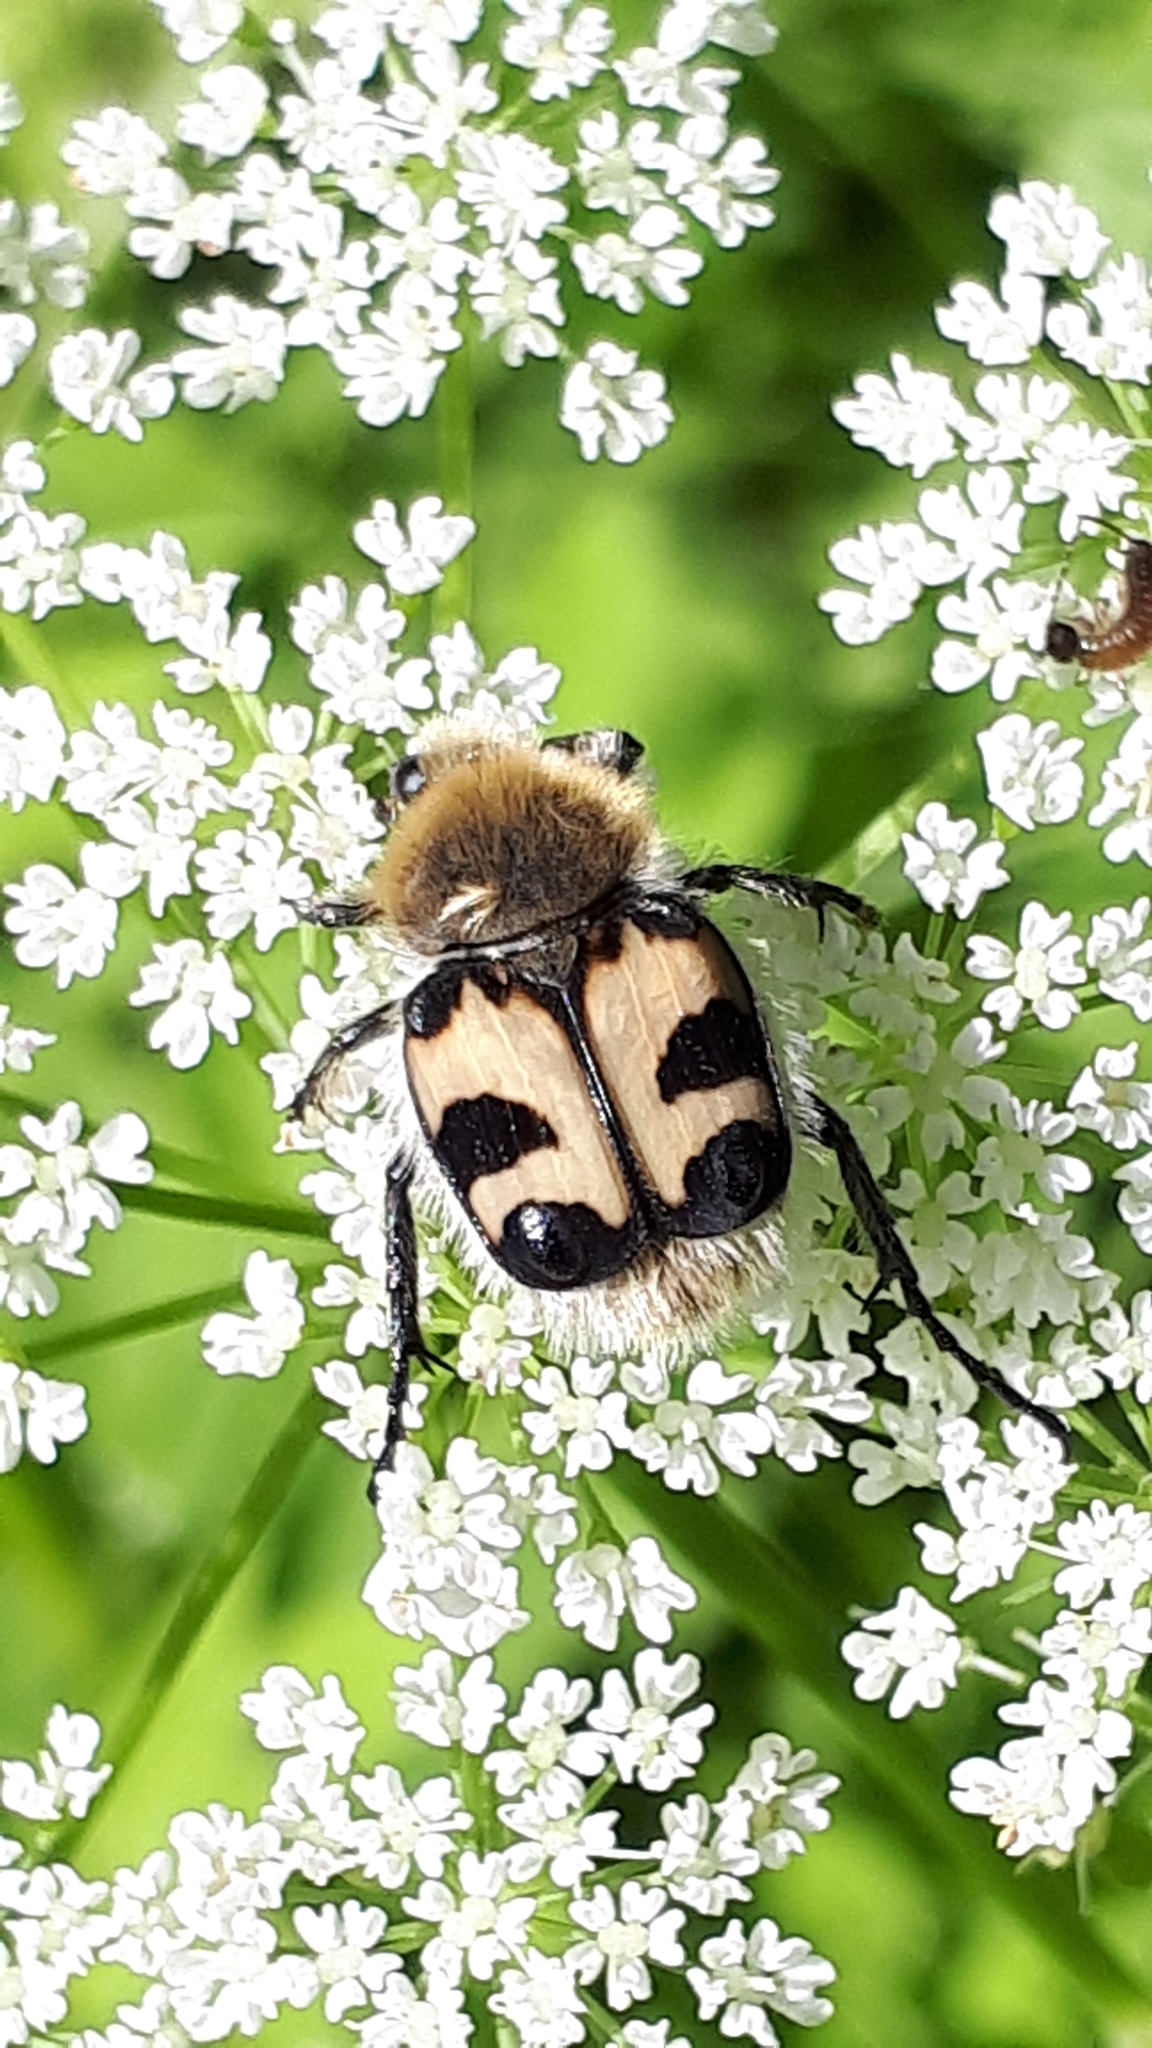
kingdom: Animalia
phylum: Arthropoda
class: Insecta
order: Coleoptera
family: Scarabaeidae
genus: Trichius
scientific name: Trichius fasciatus
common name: Bee beetle
